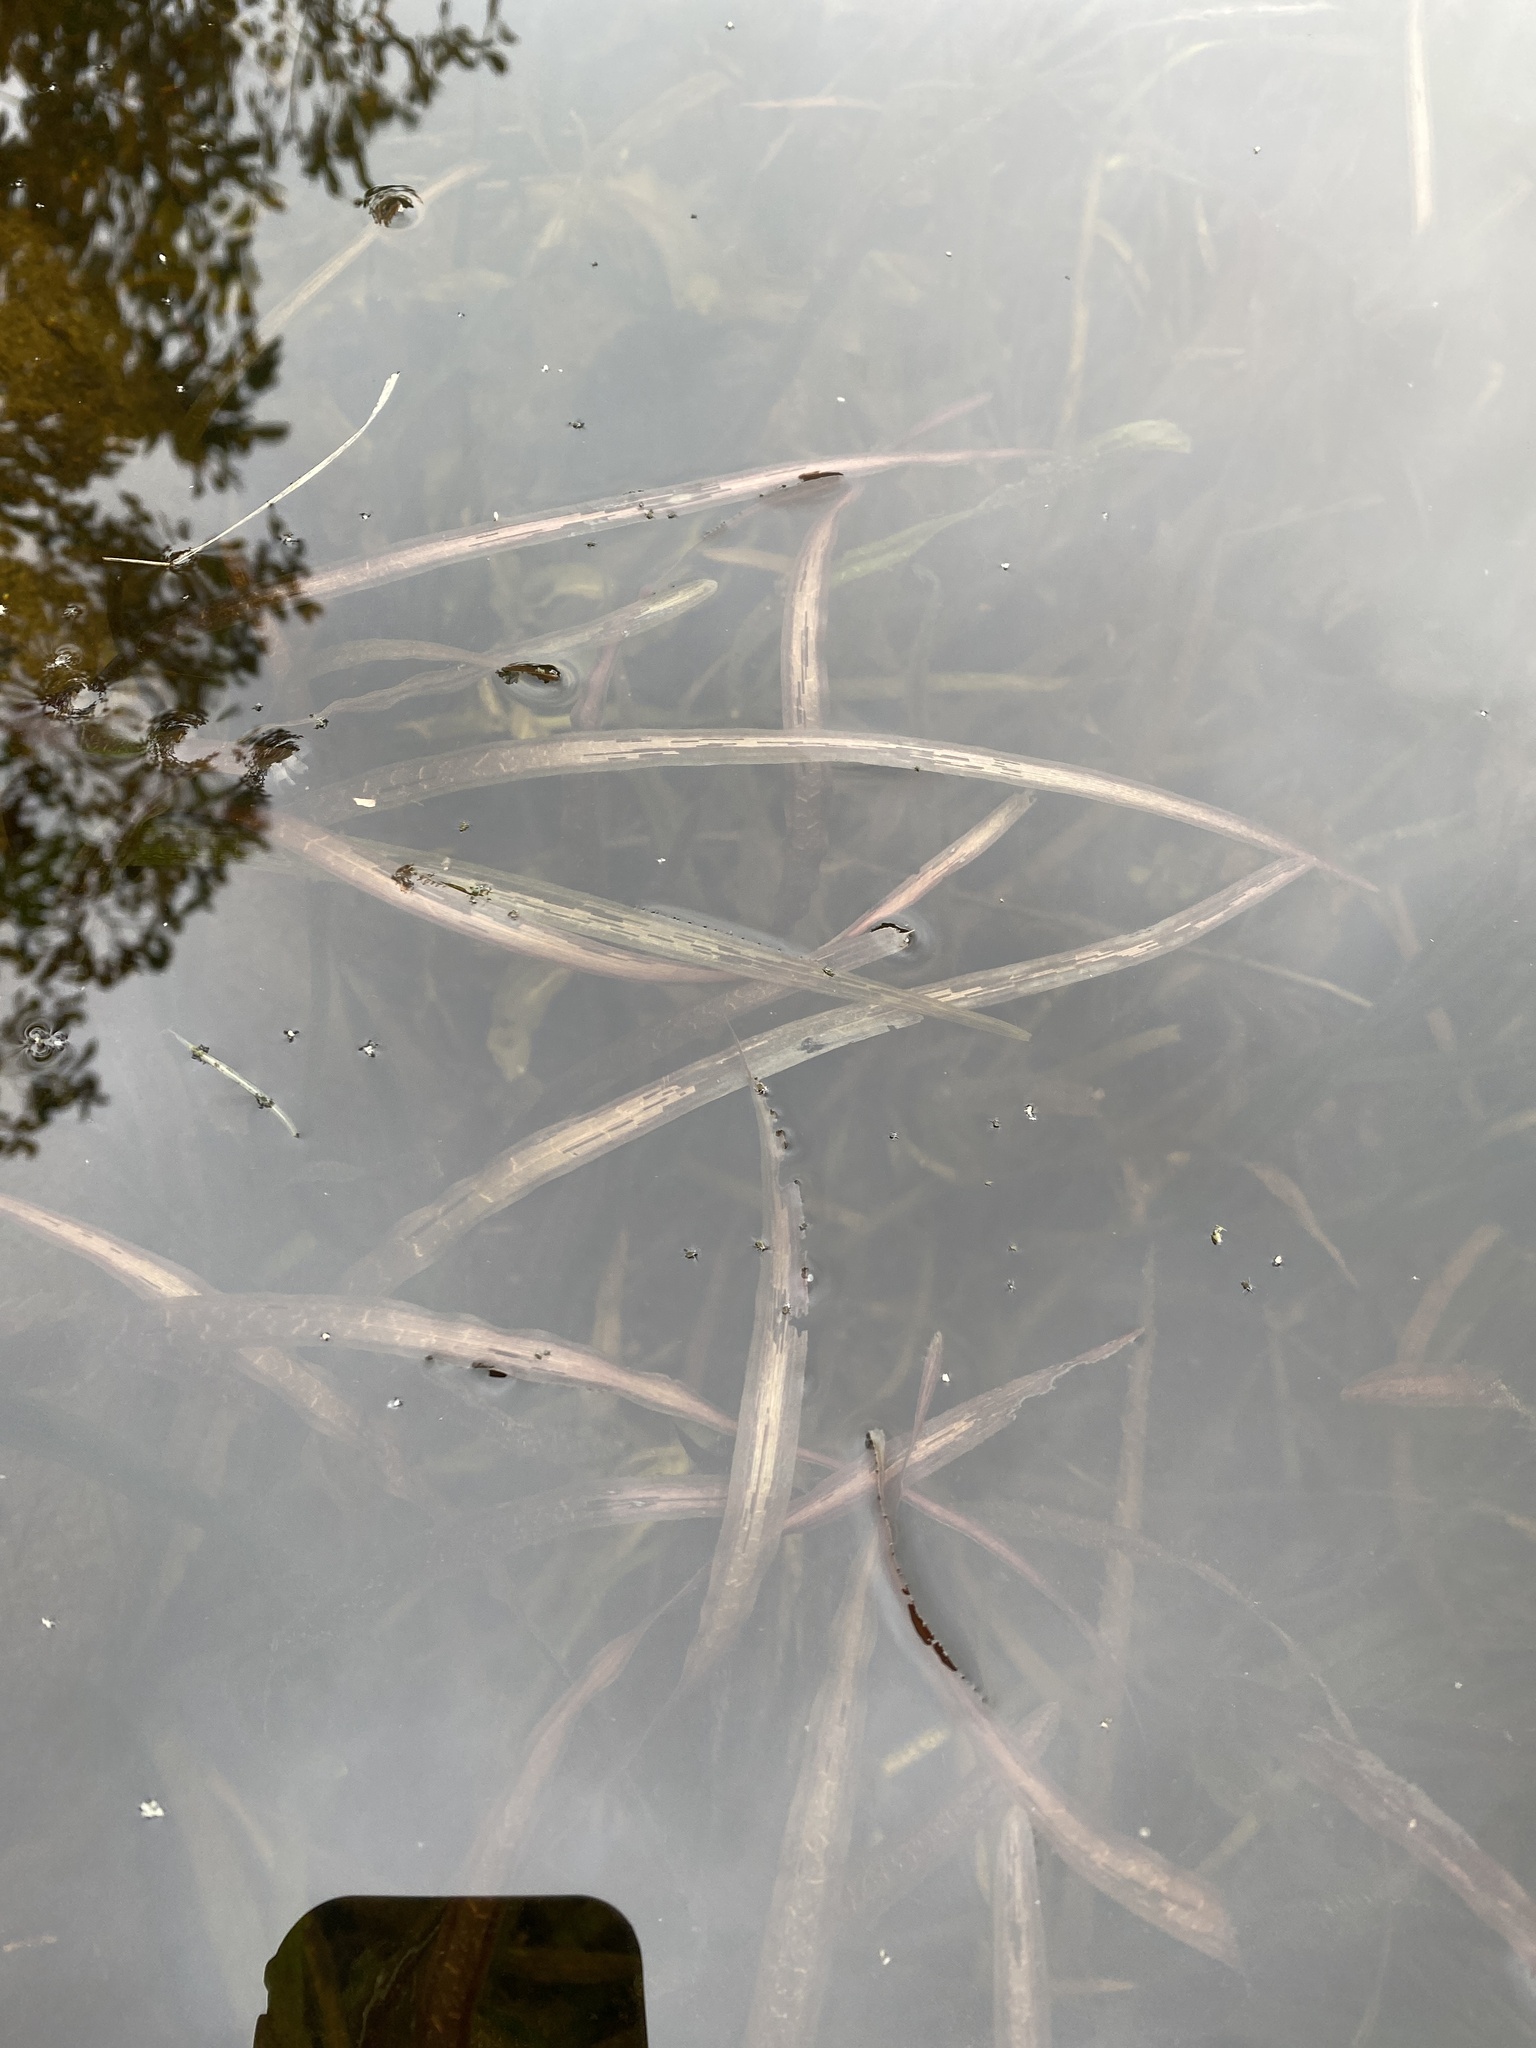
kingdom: Plantae
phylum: Tracheophyta
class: Liliopsida
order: Alismatales
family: Hydrocharitaceae
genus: Vallisneria
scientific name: Vallisneria americana
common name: American eelgrass
